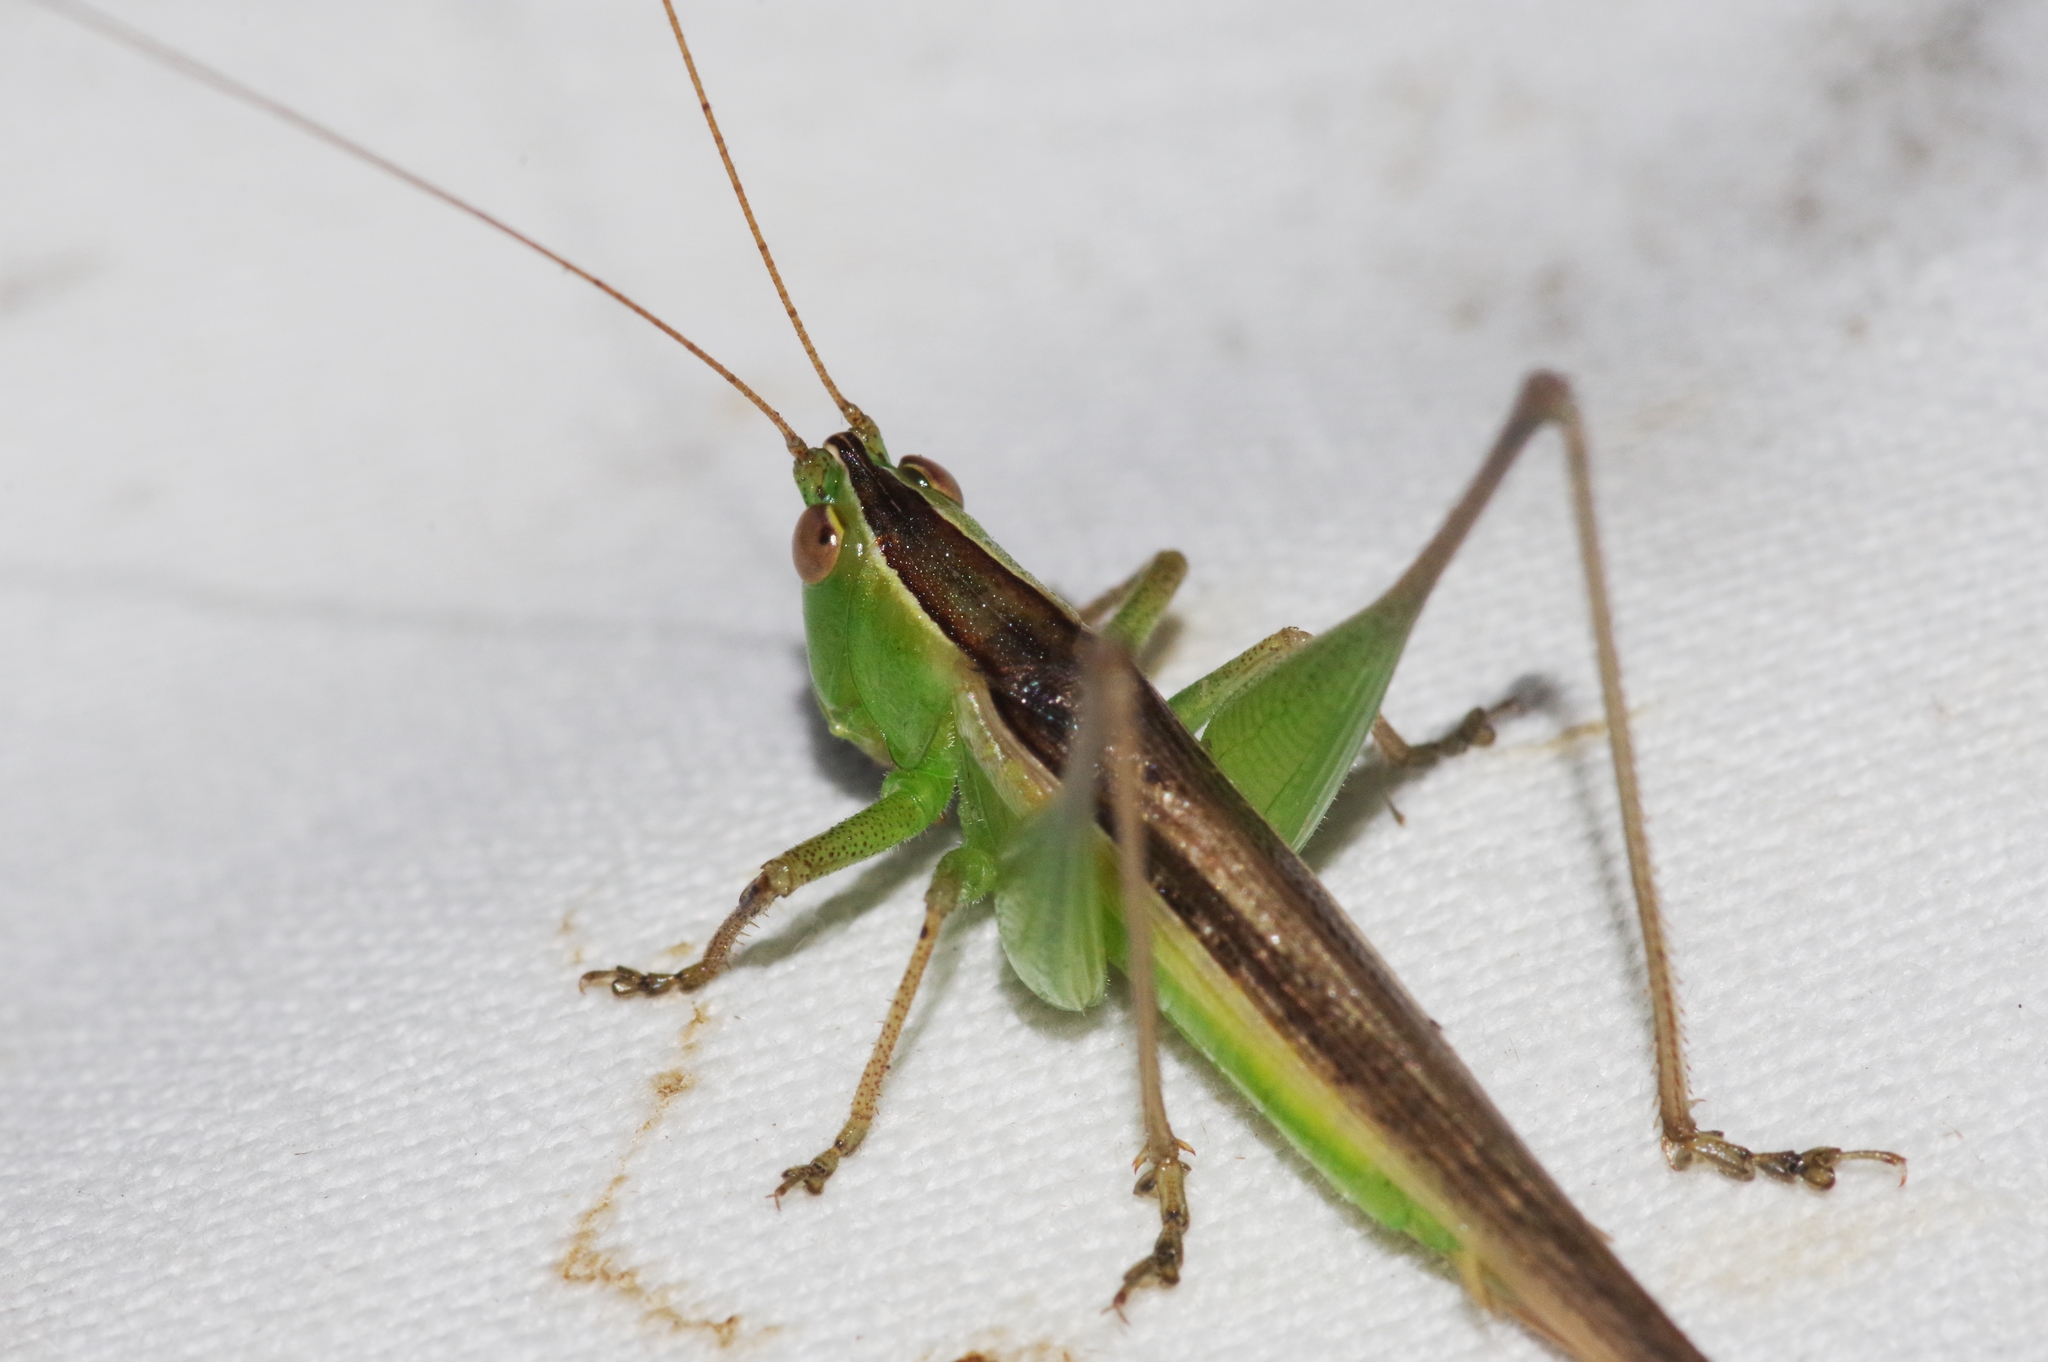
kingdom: Animalia
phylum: Arthropoda
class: Insecta
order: Orthoptera
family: Tettigoniidae
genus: Conocephalus
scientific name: Conocephalus maculatus
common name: Spotted meadow katydid
